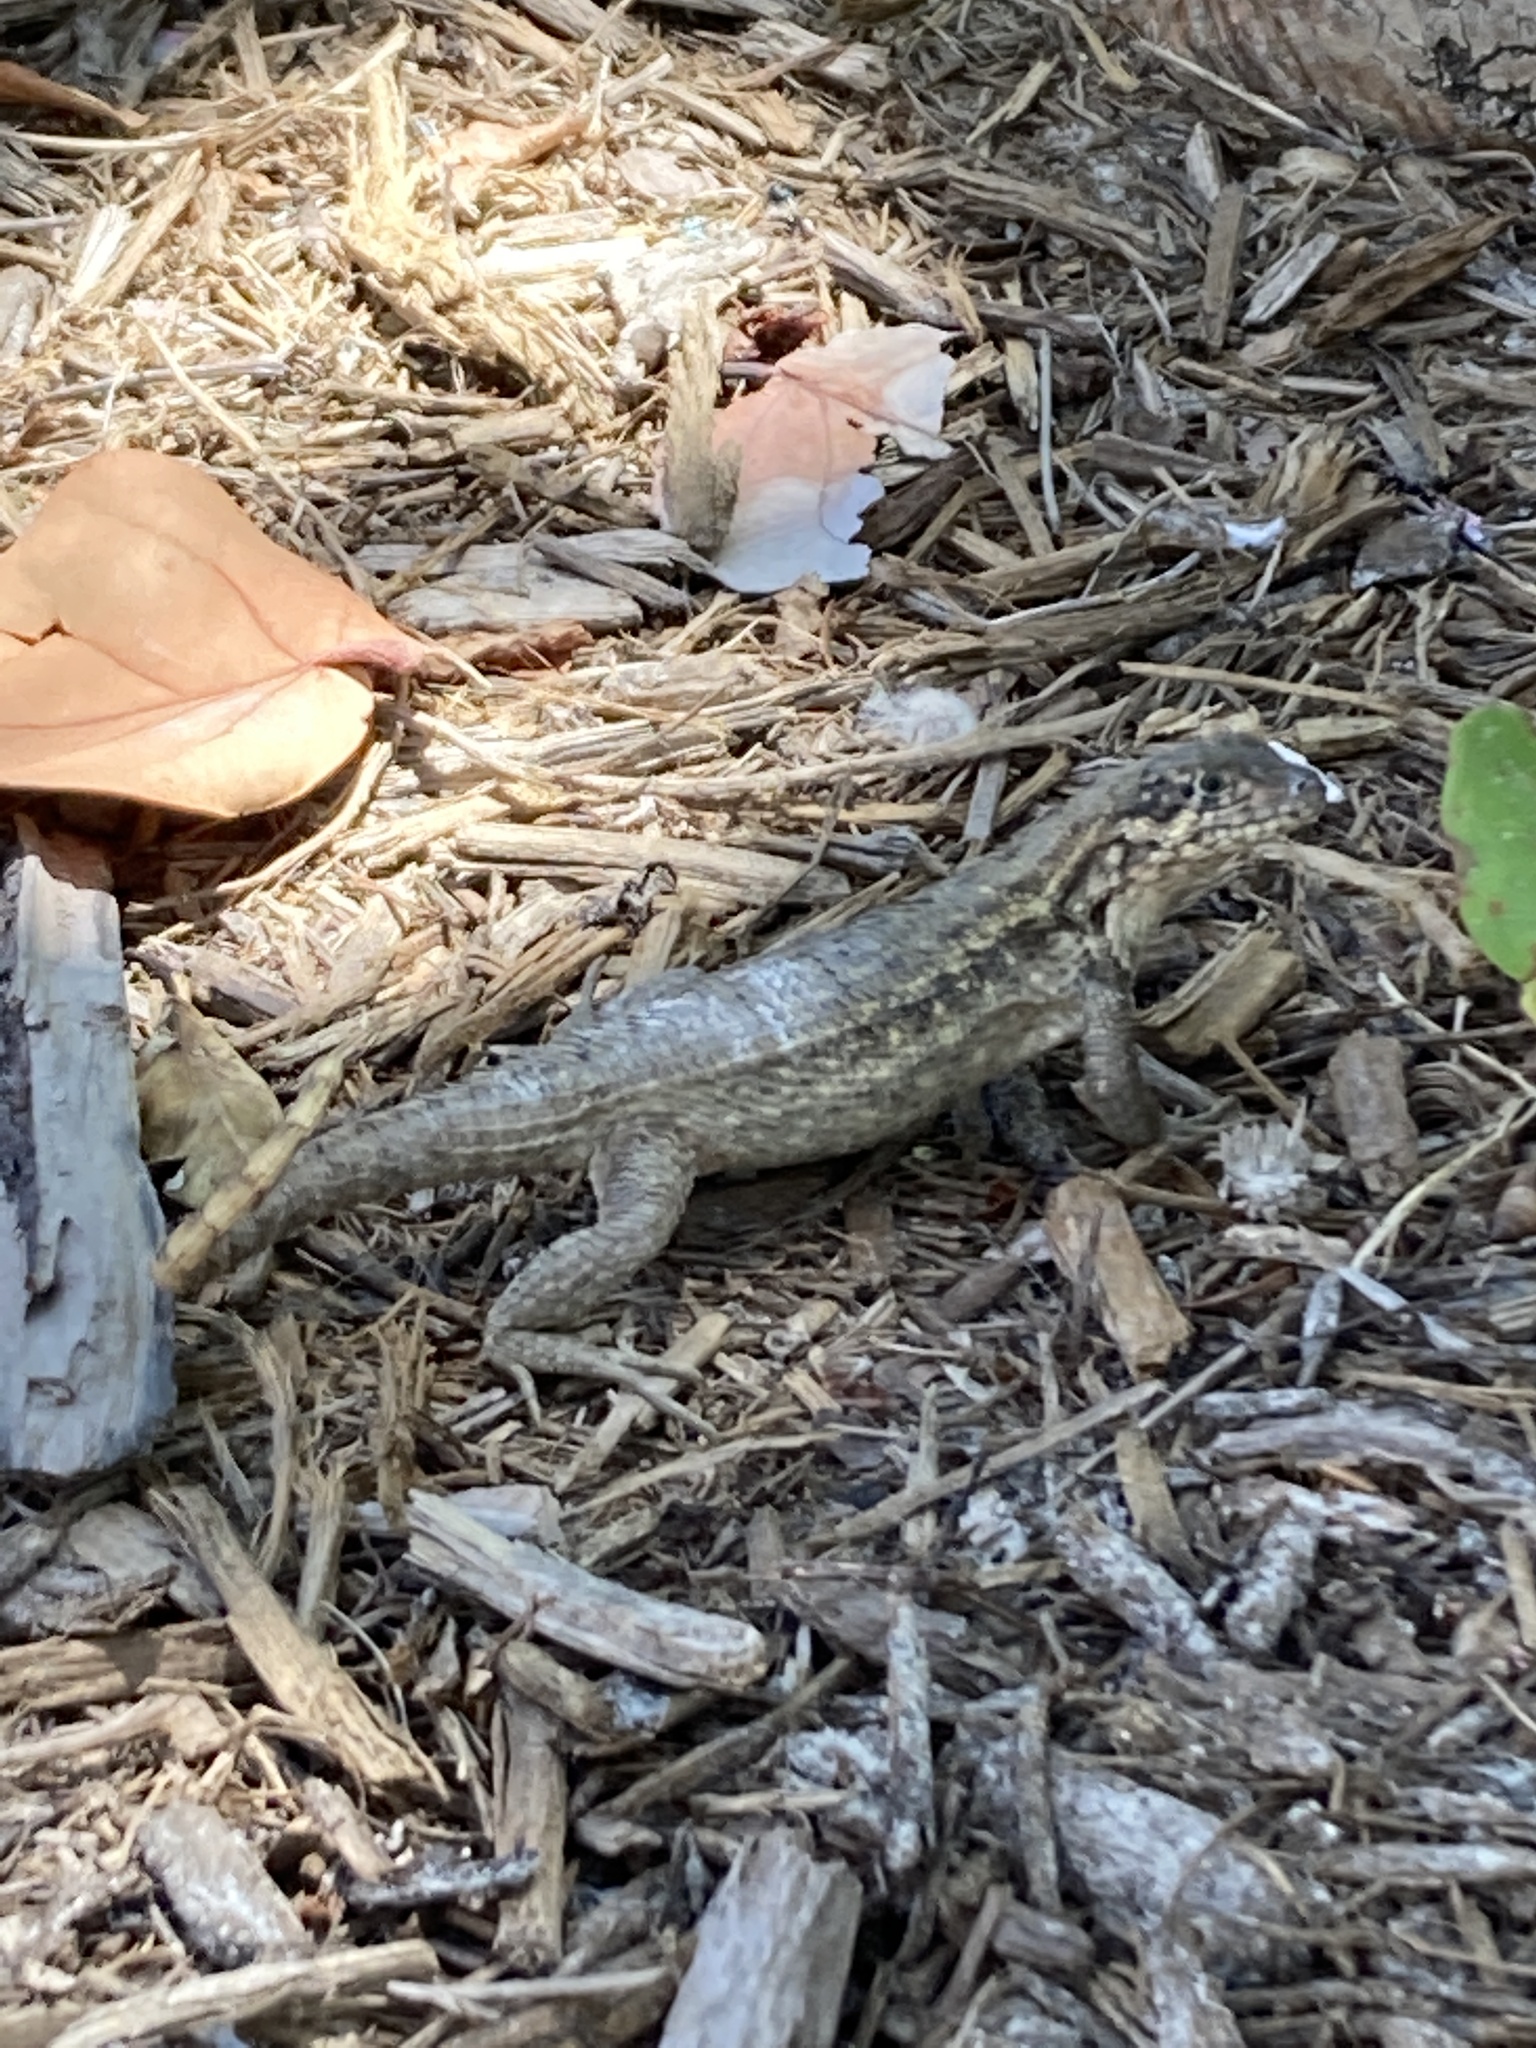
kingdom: Animalia
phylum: Chordata
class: Squamata
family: Leiocephalidae
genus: Leiocephalus
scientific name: Leiocephalus carinatus
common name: Northern curly-tailed lizard
